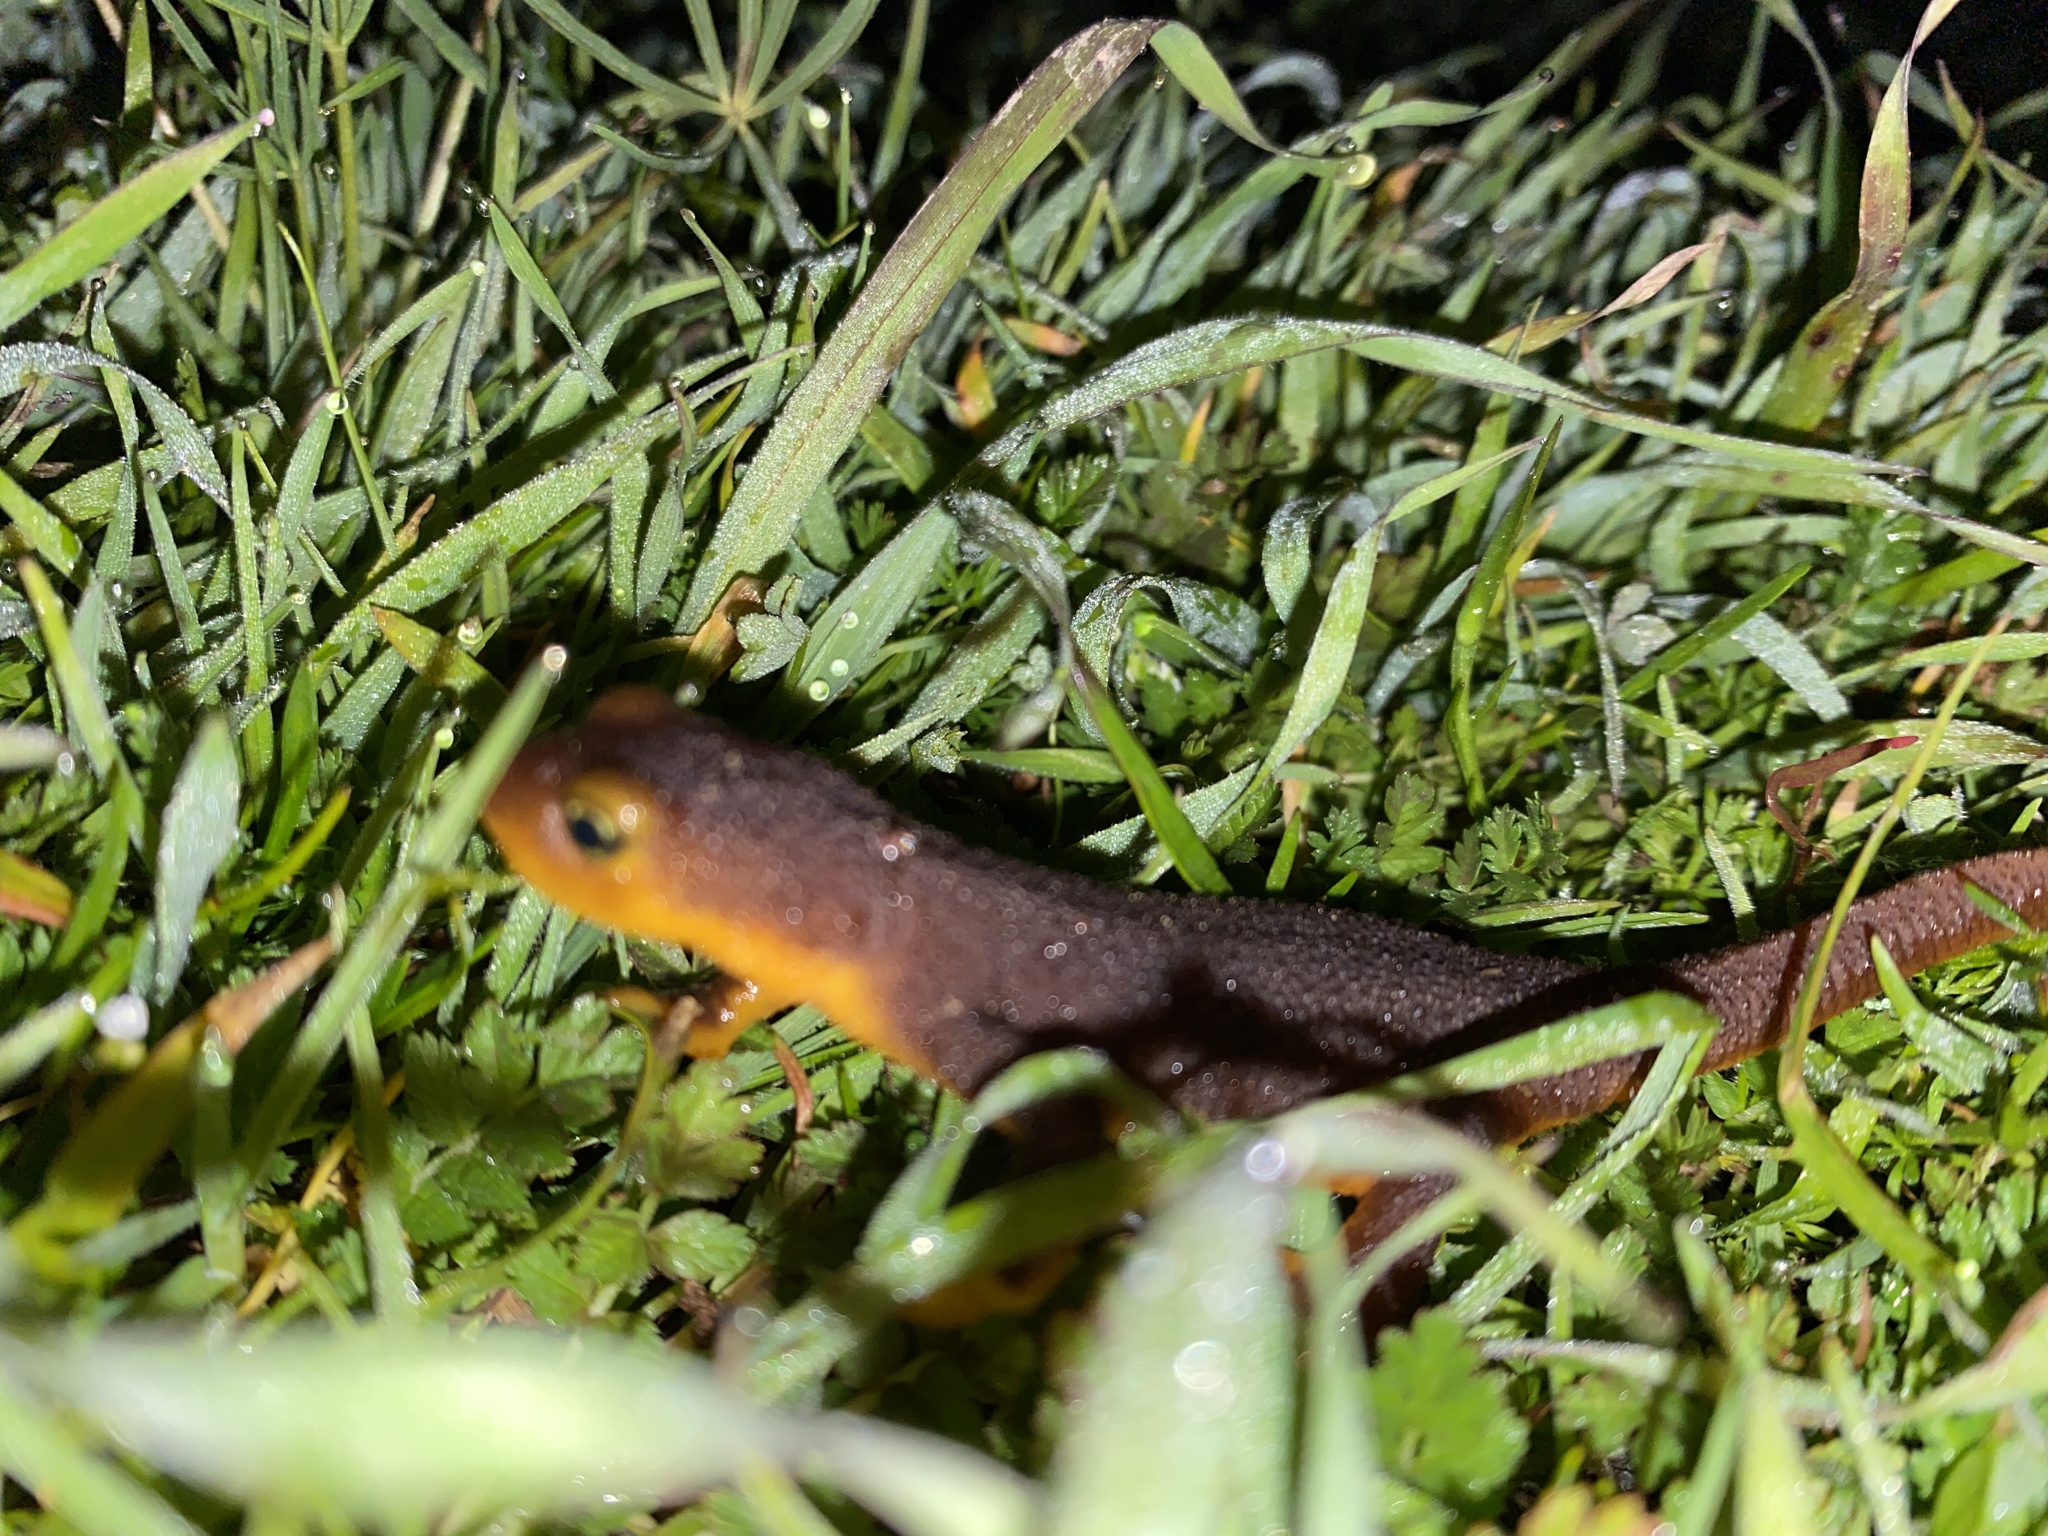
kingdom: Animalia
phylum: Chordata
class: Amphibia
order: Caudata
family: Salamandridae
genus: Taricha
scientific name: Taricha torosa
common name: California newt
